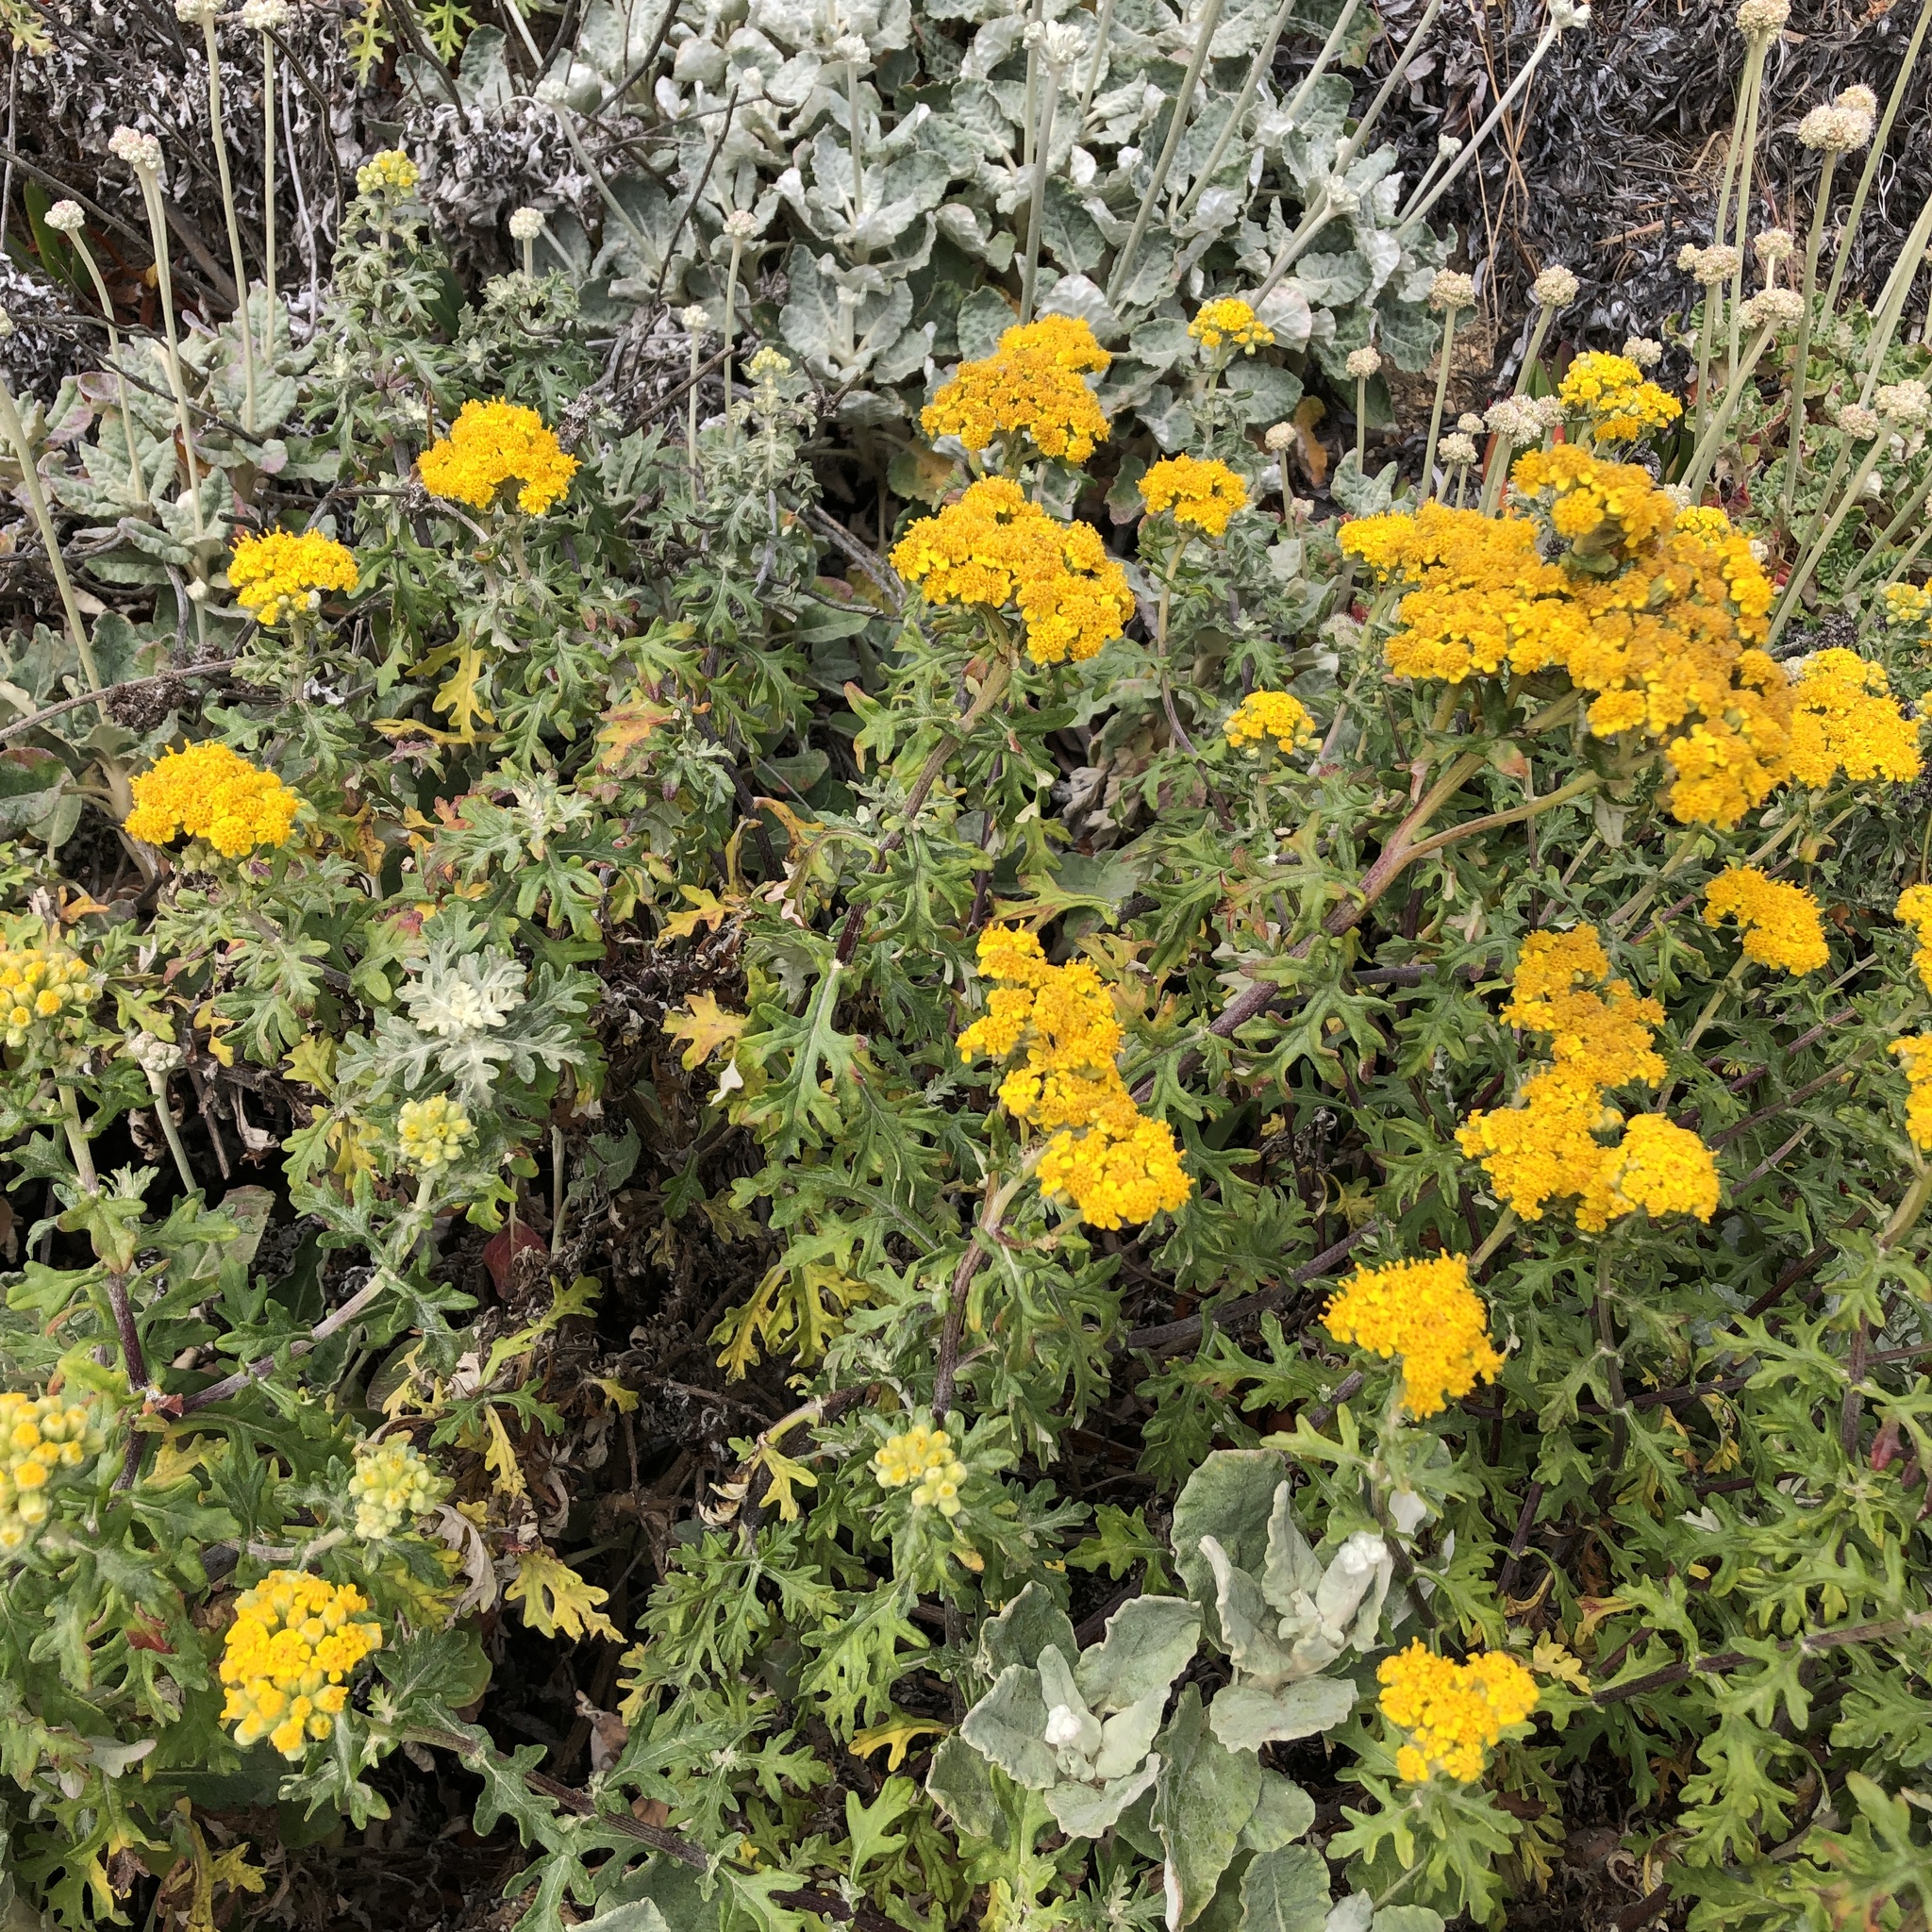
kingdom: Plantae
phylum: Tracheophyta
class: Magnoliopsida
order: Asterales
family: Asteraceae
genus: Eriophyllum
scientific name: Eriophyllum staechadifolium
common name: Lizardtail
